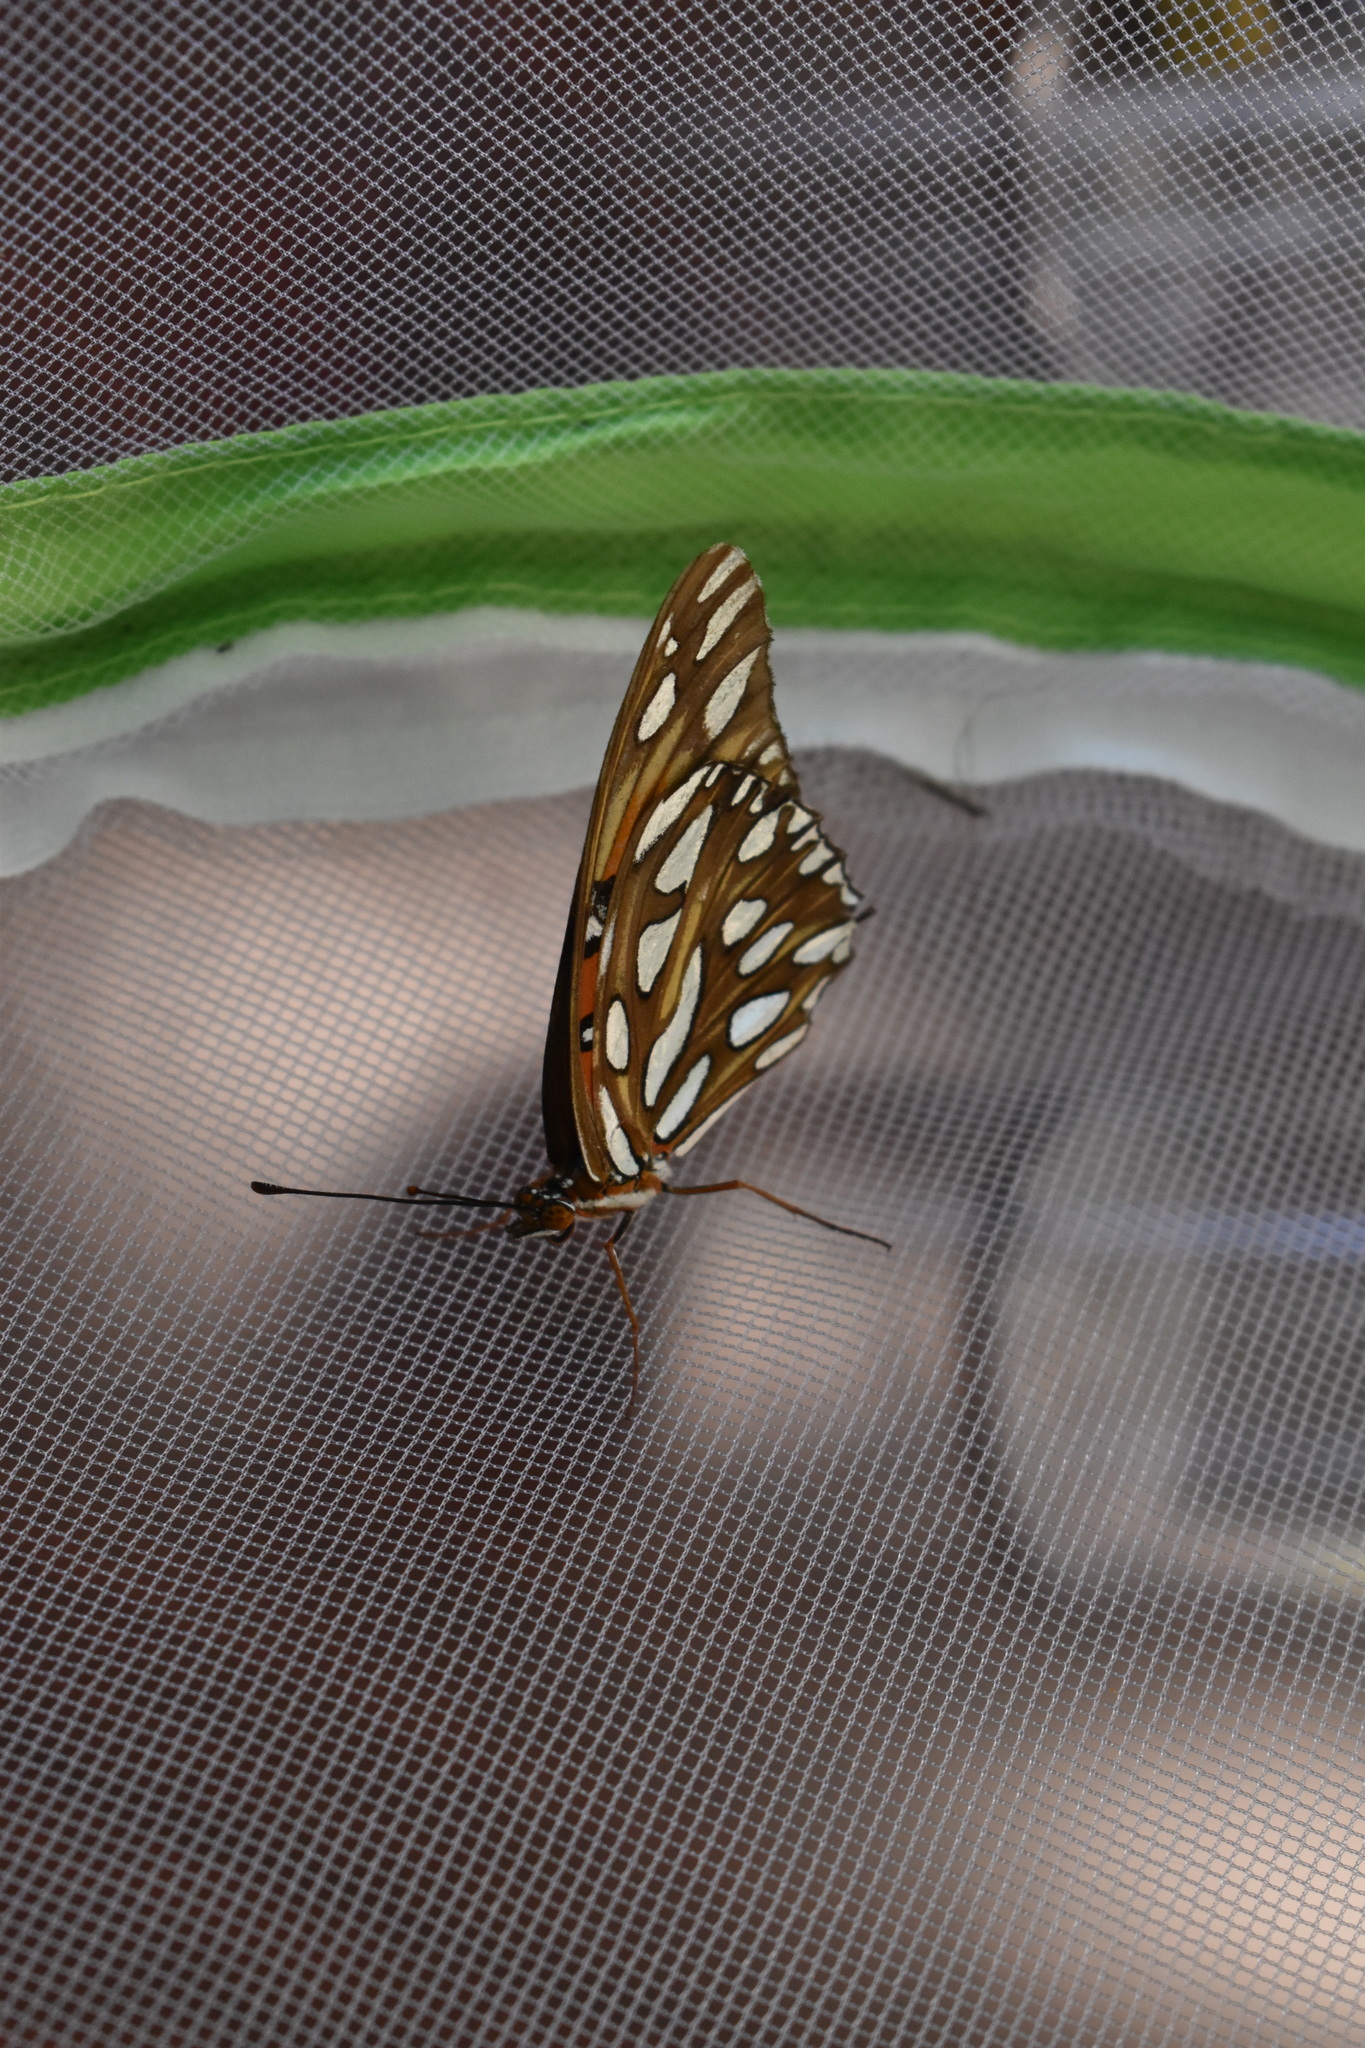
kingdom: Animalia
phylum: Arthropoda
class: Insecta
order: Lepidoptera
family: Nymphalidae
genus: Dione
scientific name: Dione vanillae
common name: Gulf fritillary
